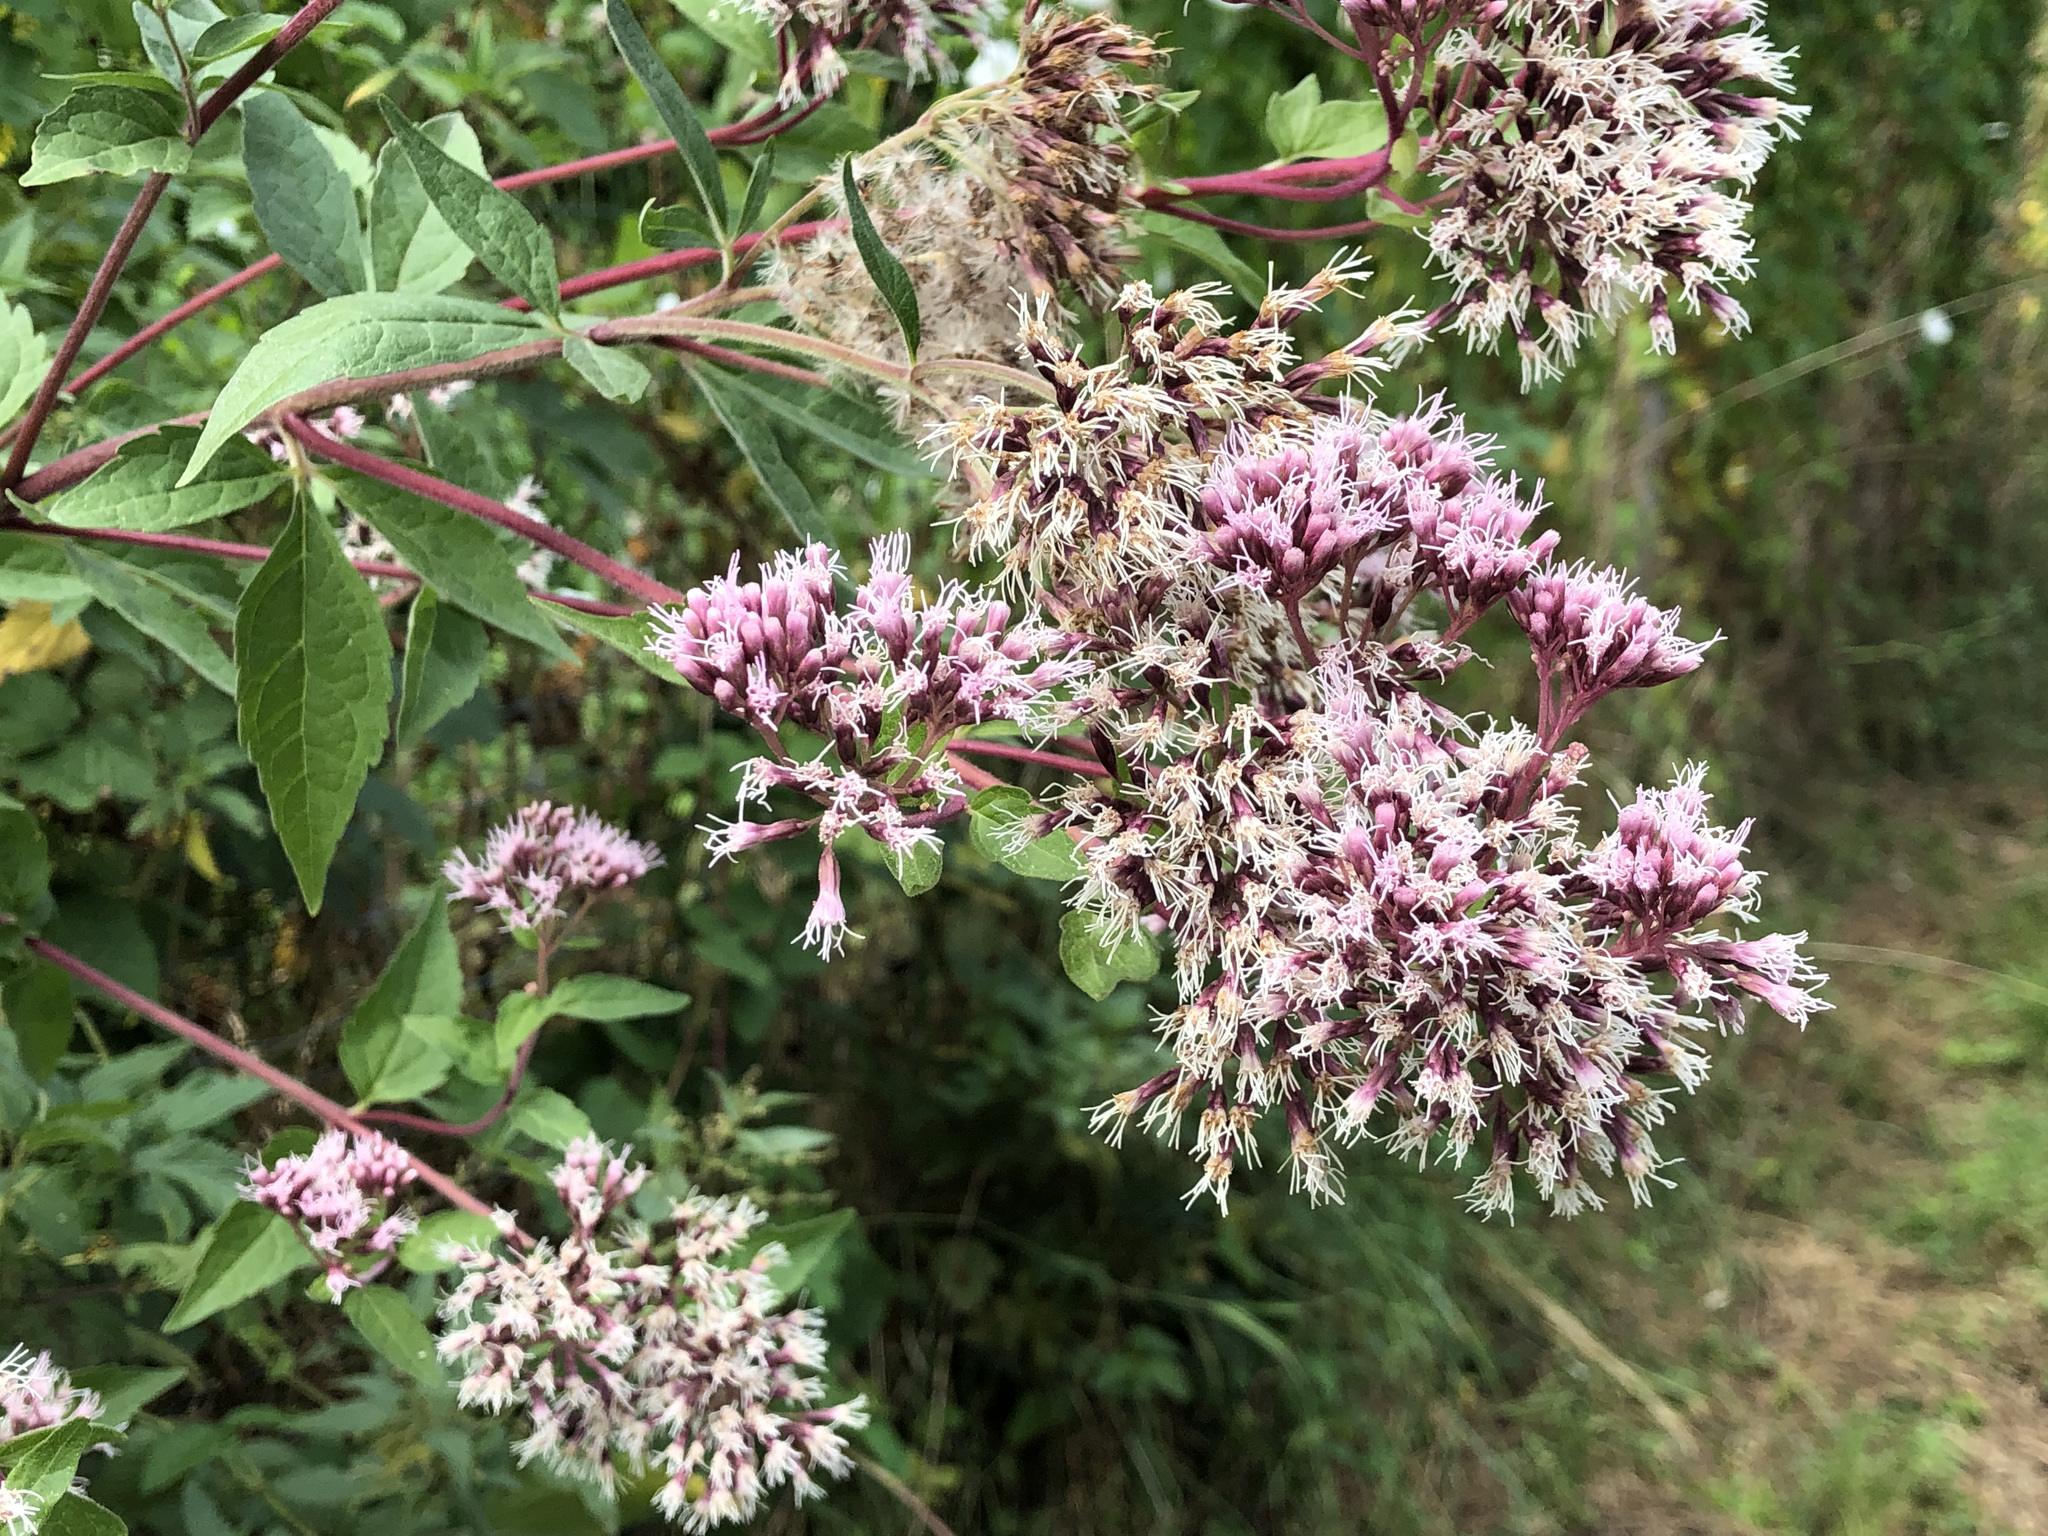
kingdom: Plantae
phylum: Tracheophyta
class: Magnoliopsida
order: Asterales
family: Asteraceae
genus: Eupatorium
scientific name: Eupatorium cannabinum
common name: Hemp-agrimony
